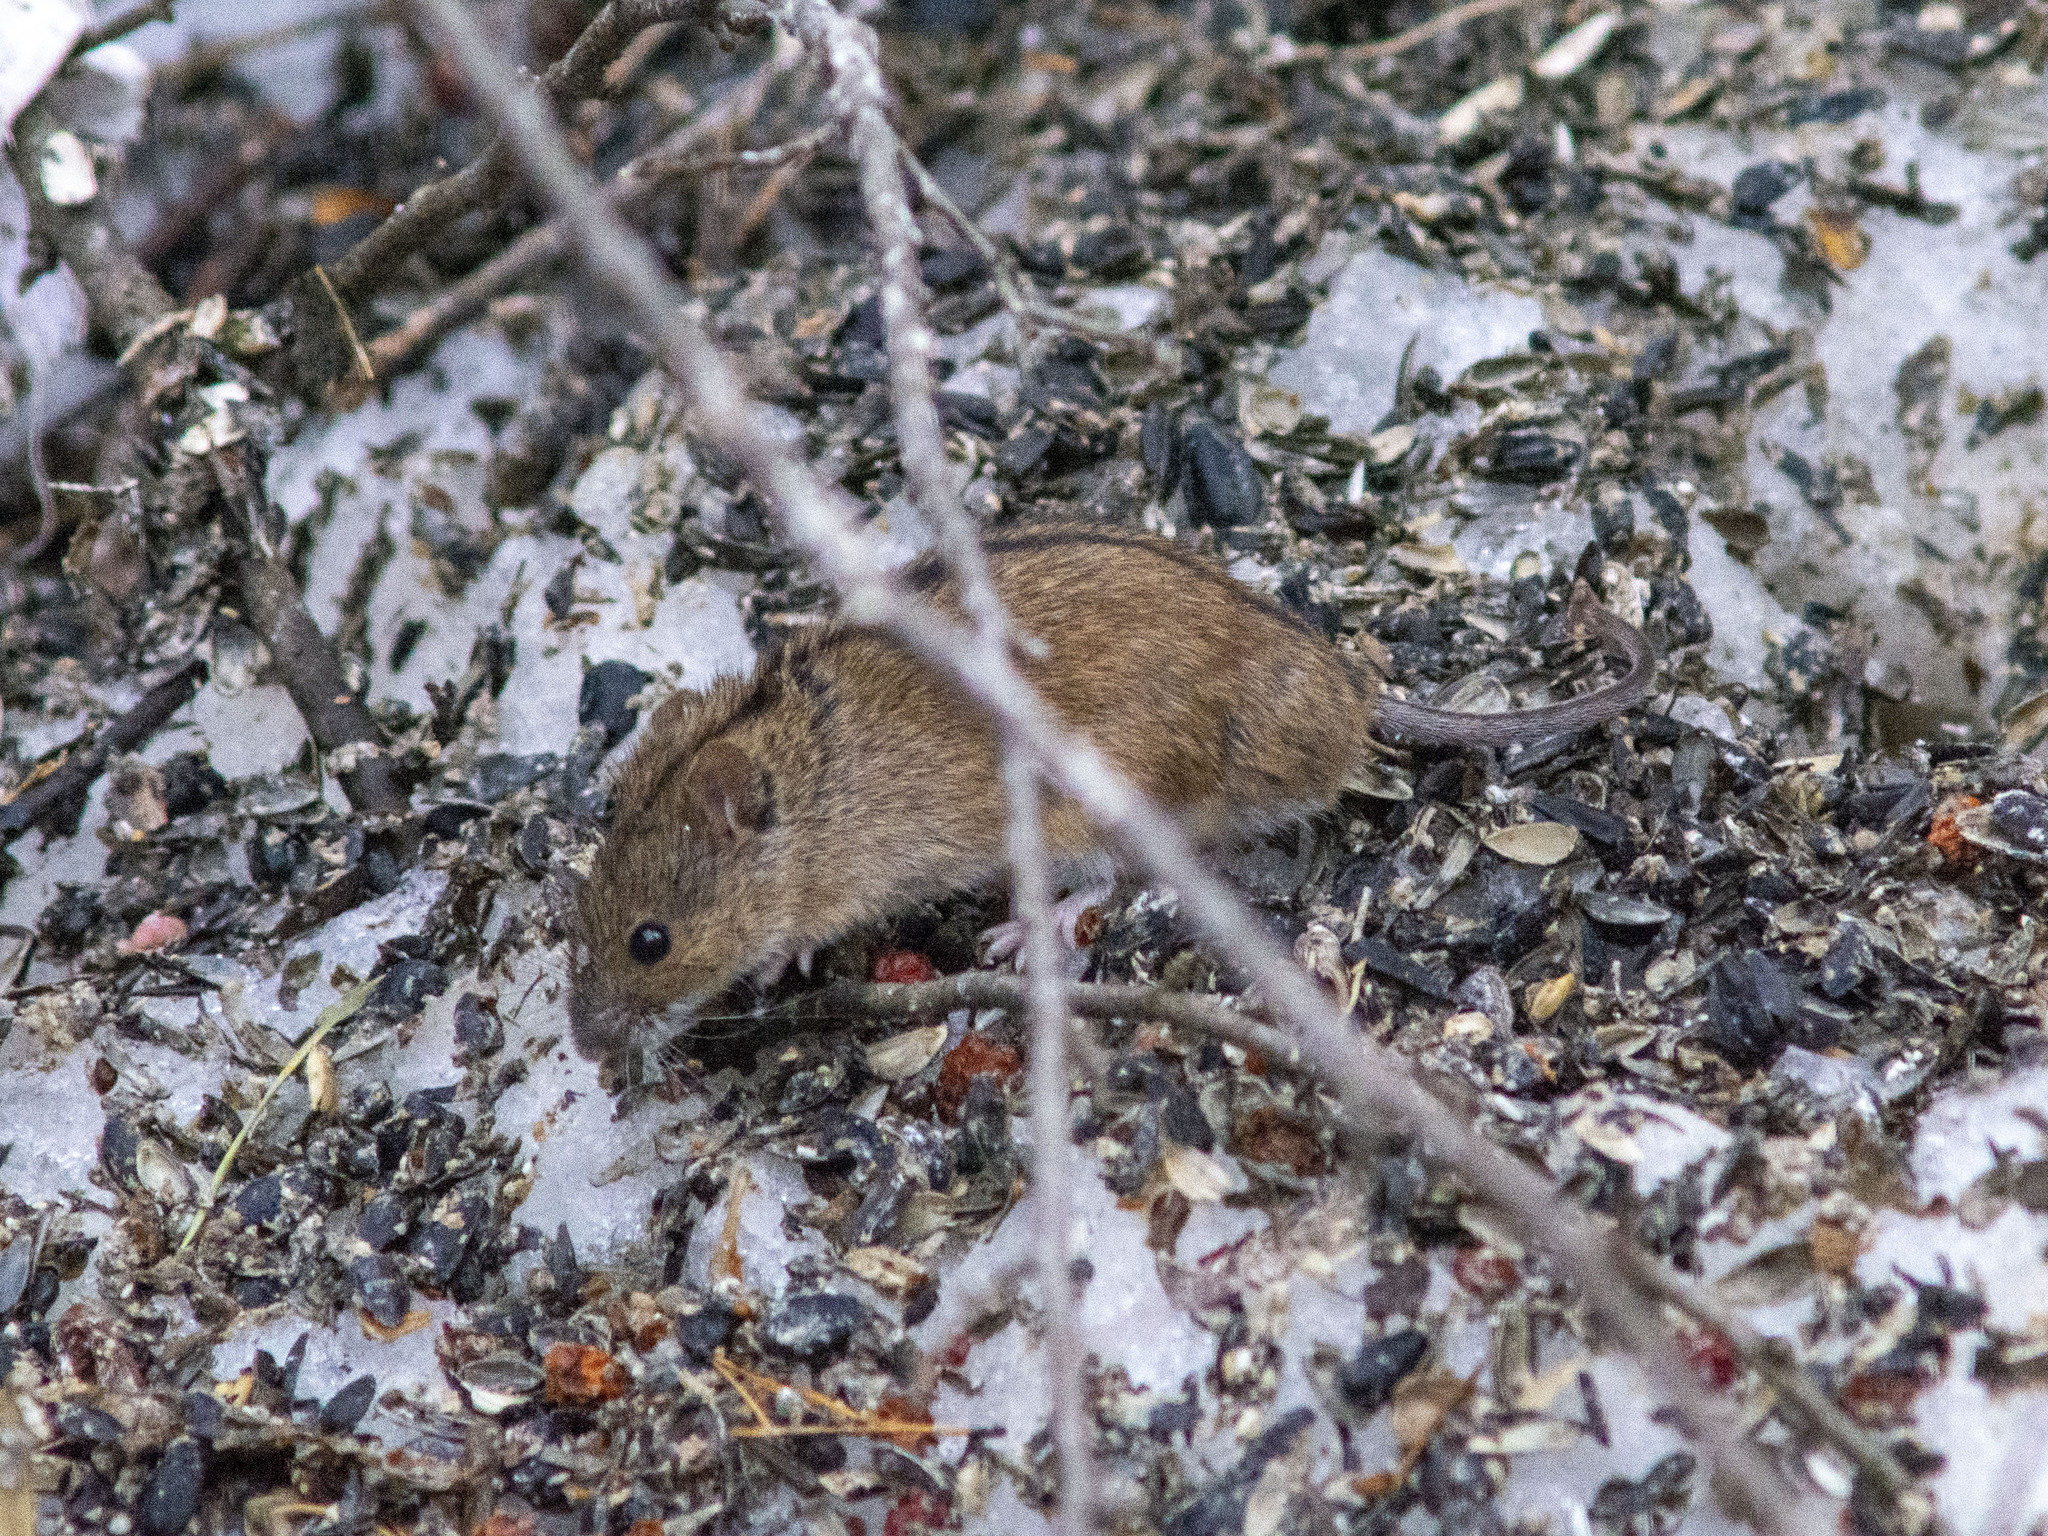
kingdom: Animalia
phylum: Chordata
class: Mammalia
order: Rodentia
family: Muridae
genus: Apodemus
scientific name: Apodemus agrarius
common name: Striped field mouse
